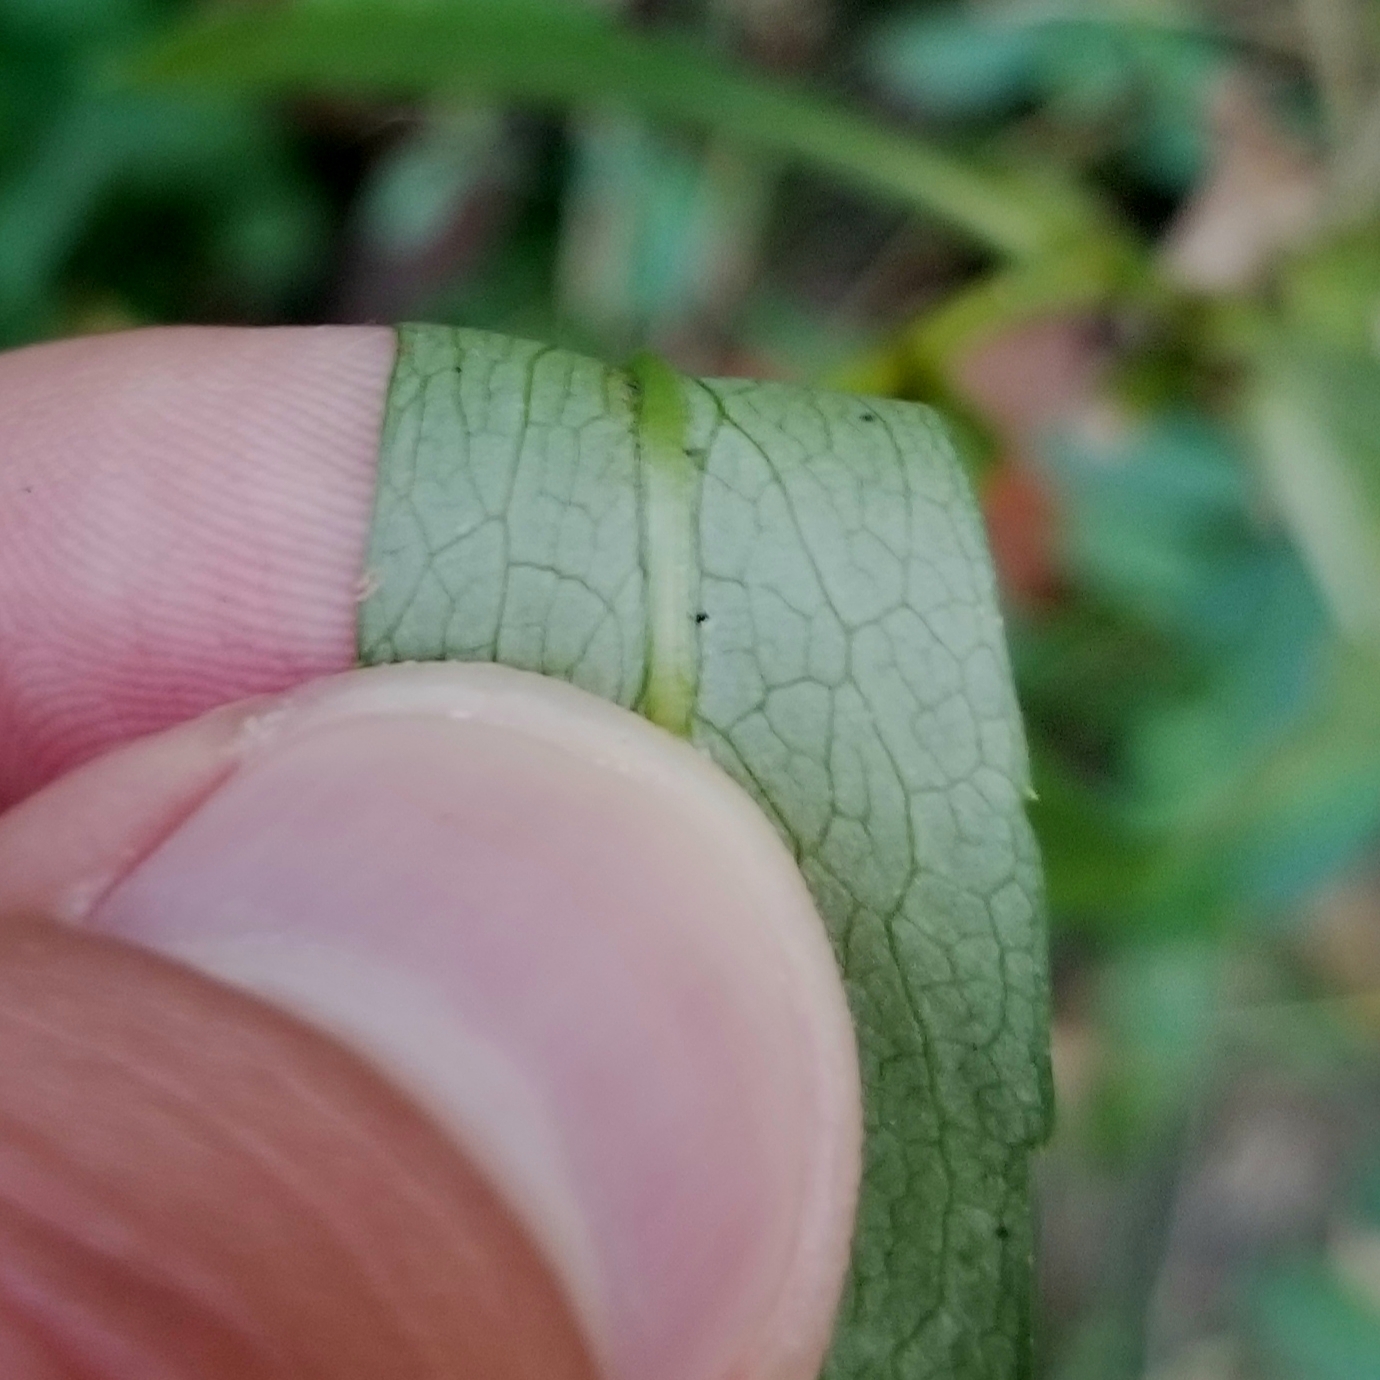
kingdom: Plantae
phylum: Tracheophyta
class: Magnoliopsida
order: Asterales
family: Asteraceae
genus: Symphyotrichum
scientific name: Symphyotrichum prenanthoides
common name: Crooked-stem aster
